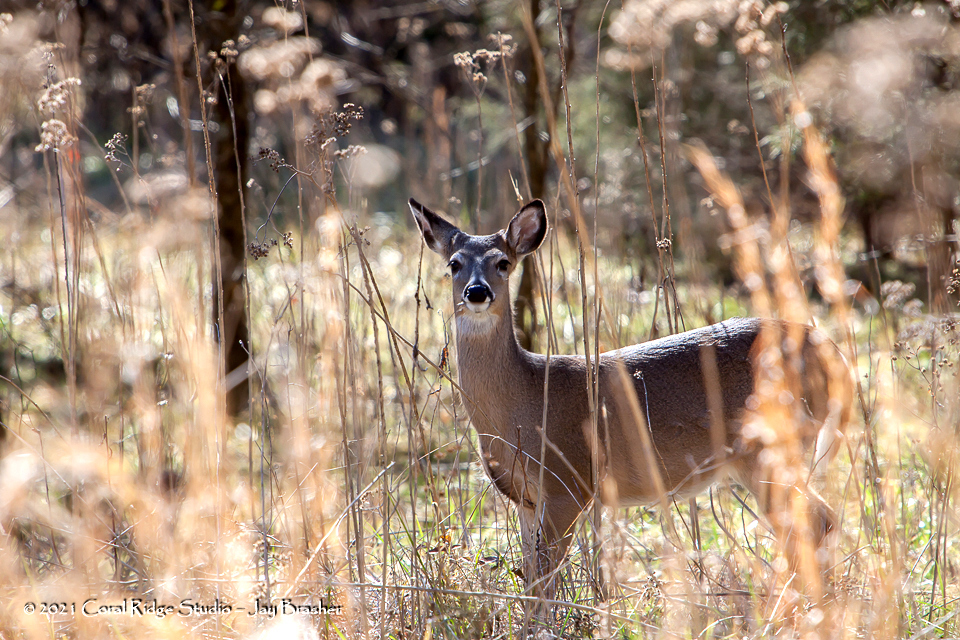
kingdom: Animalia
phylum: Chordata
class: Mammalia
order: Artiodactyla
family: Cervidae
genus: Odocoileus
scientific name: Odocoileus virginianus
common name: White-tailed deer
